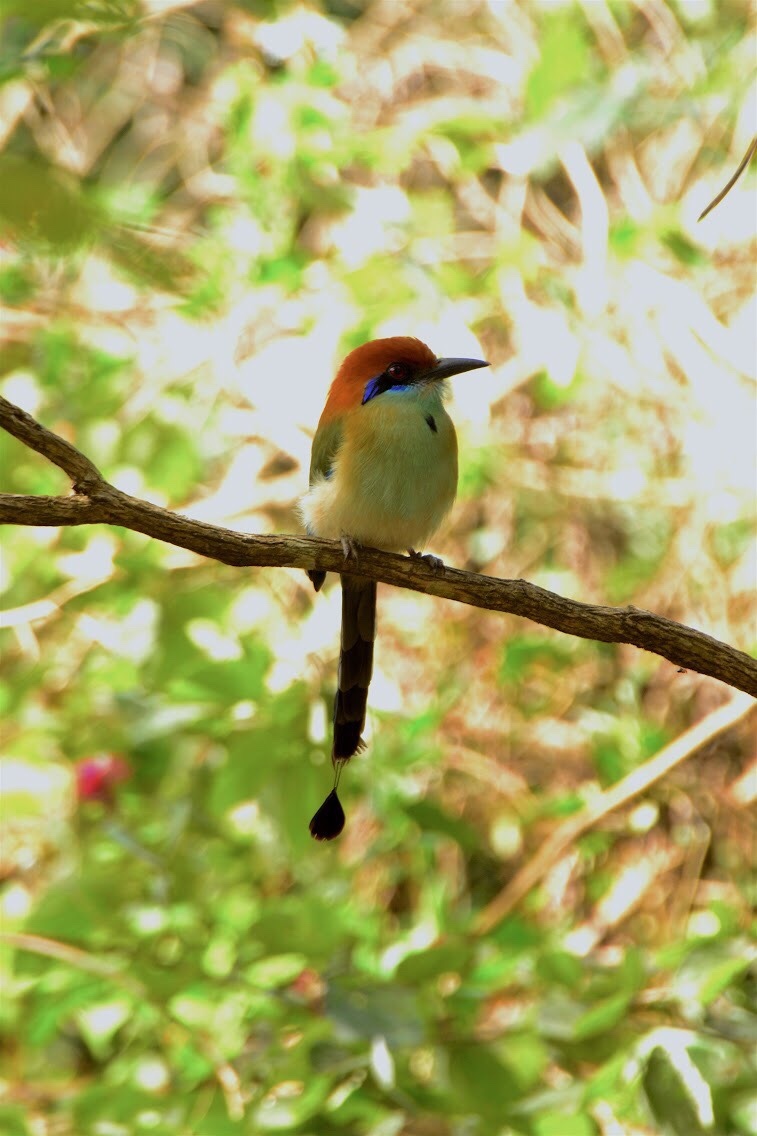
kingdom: Animalia
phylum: Chordata
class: Aves
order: Coraciiformes
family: Momotidae
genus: Momotus
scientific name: Momotus mexicanus
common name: Russet-crowned motmot
